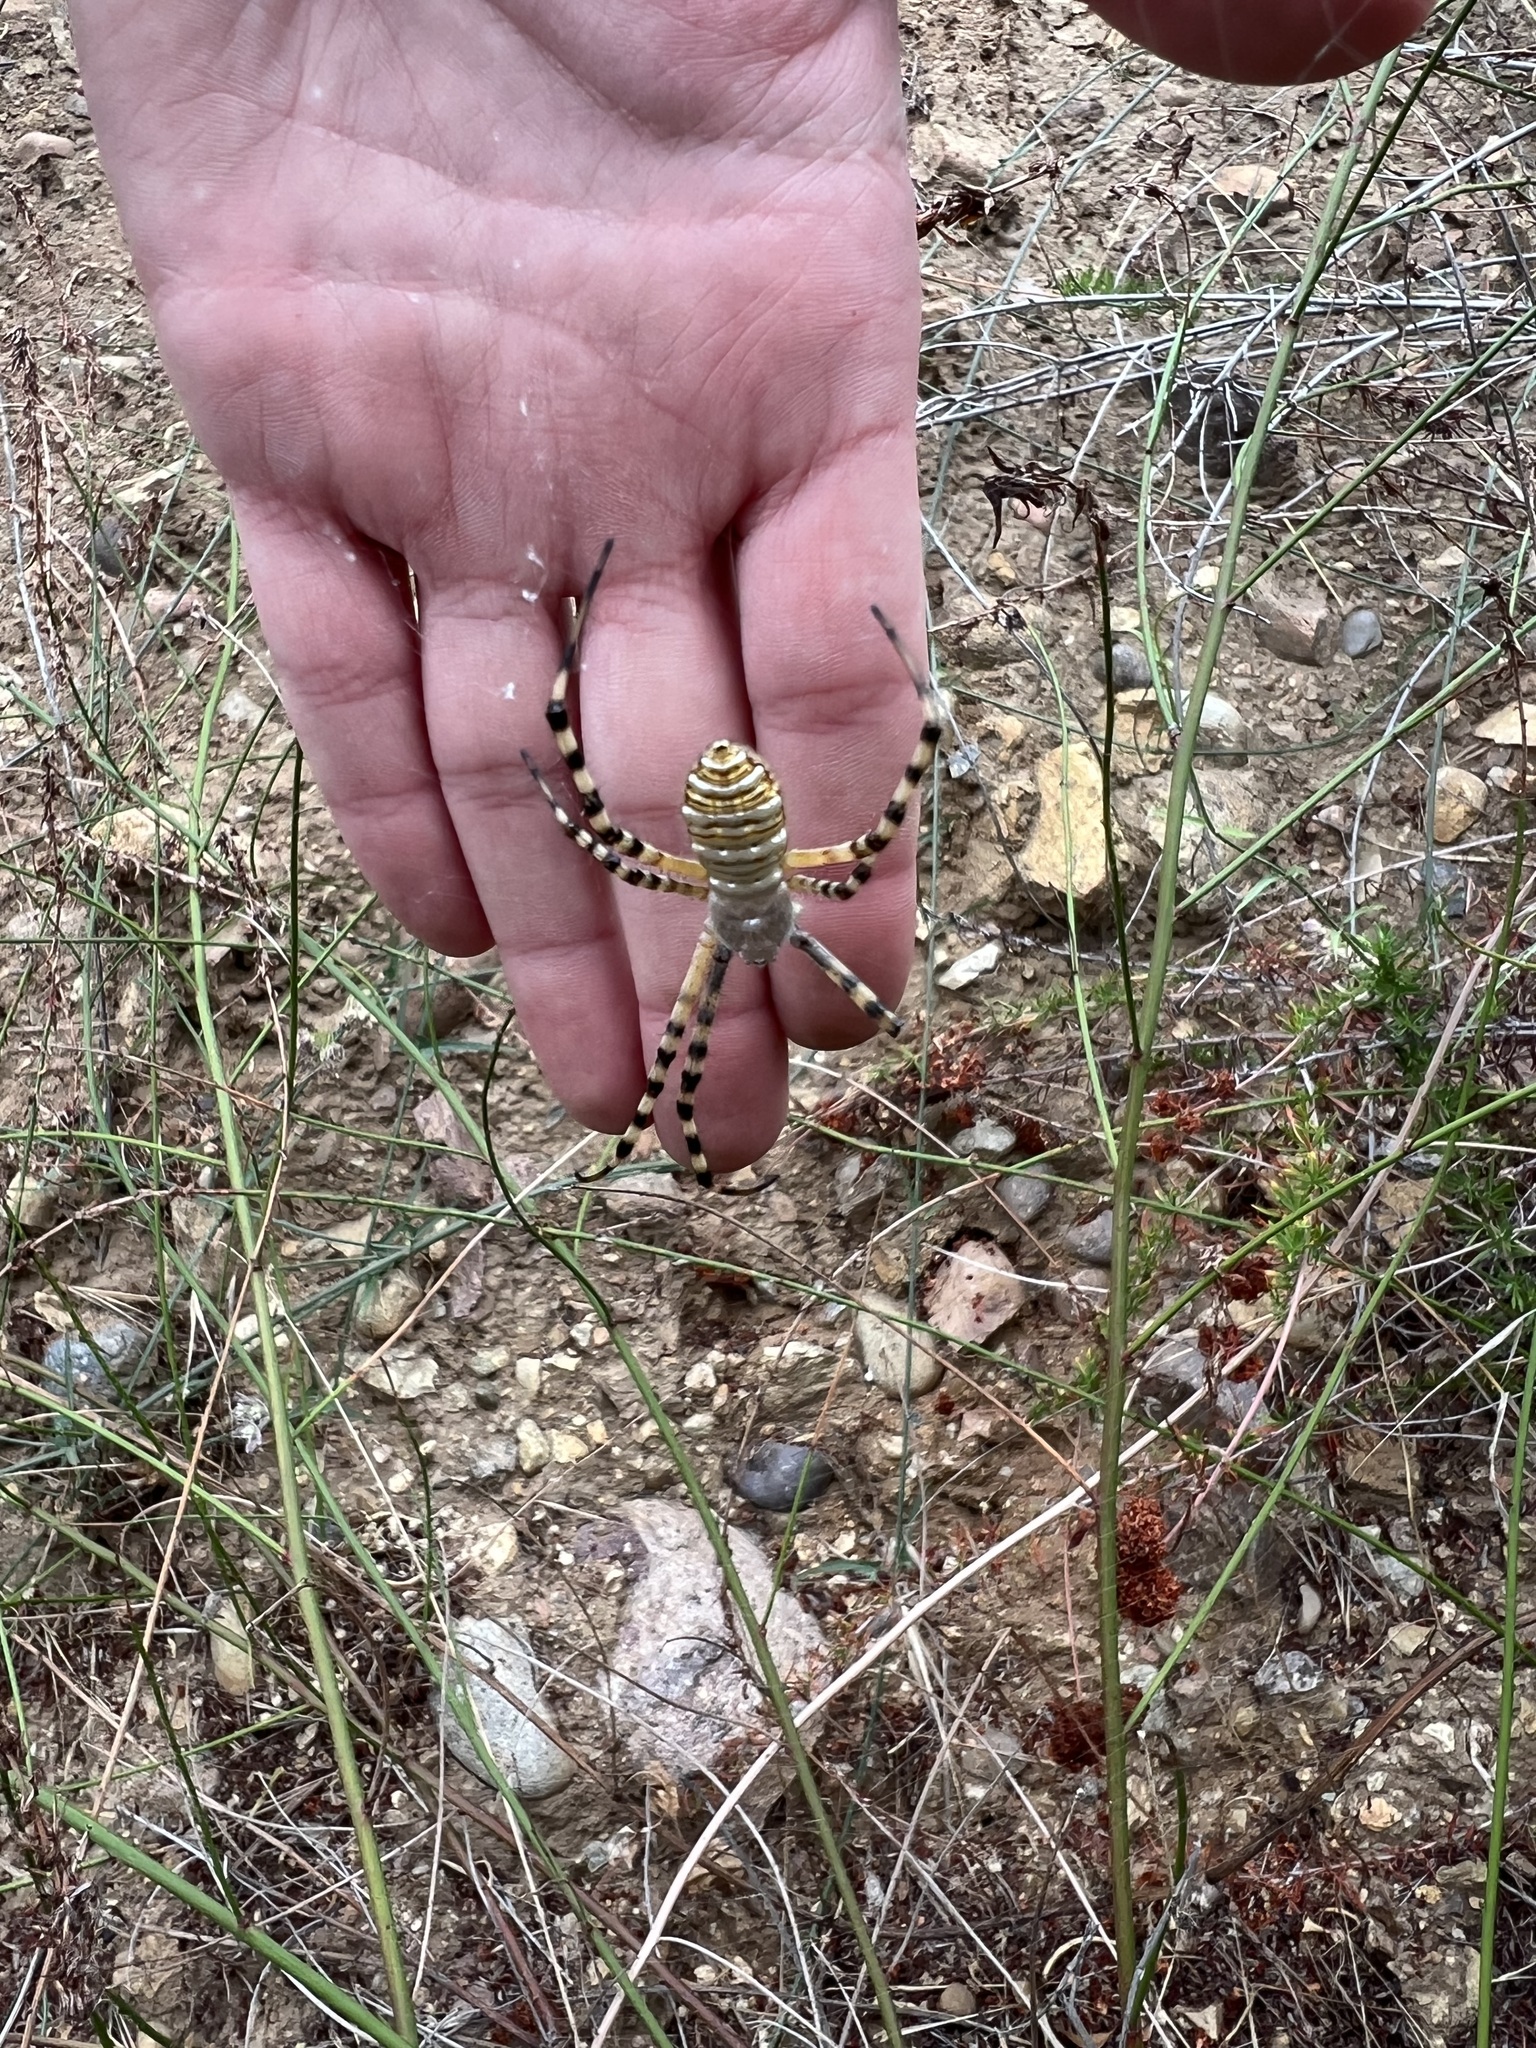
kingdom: Animalia
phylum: Arthropoda
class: Arachnida
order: Araneae
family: Araneidae
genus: Argiope
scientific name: Argiope trifasciata
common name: Banded garden spider
